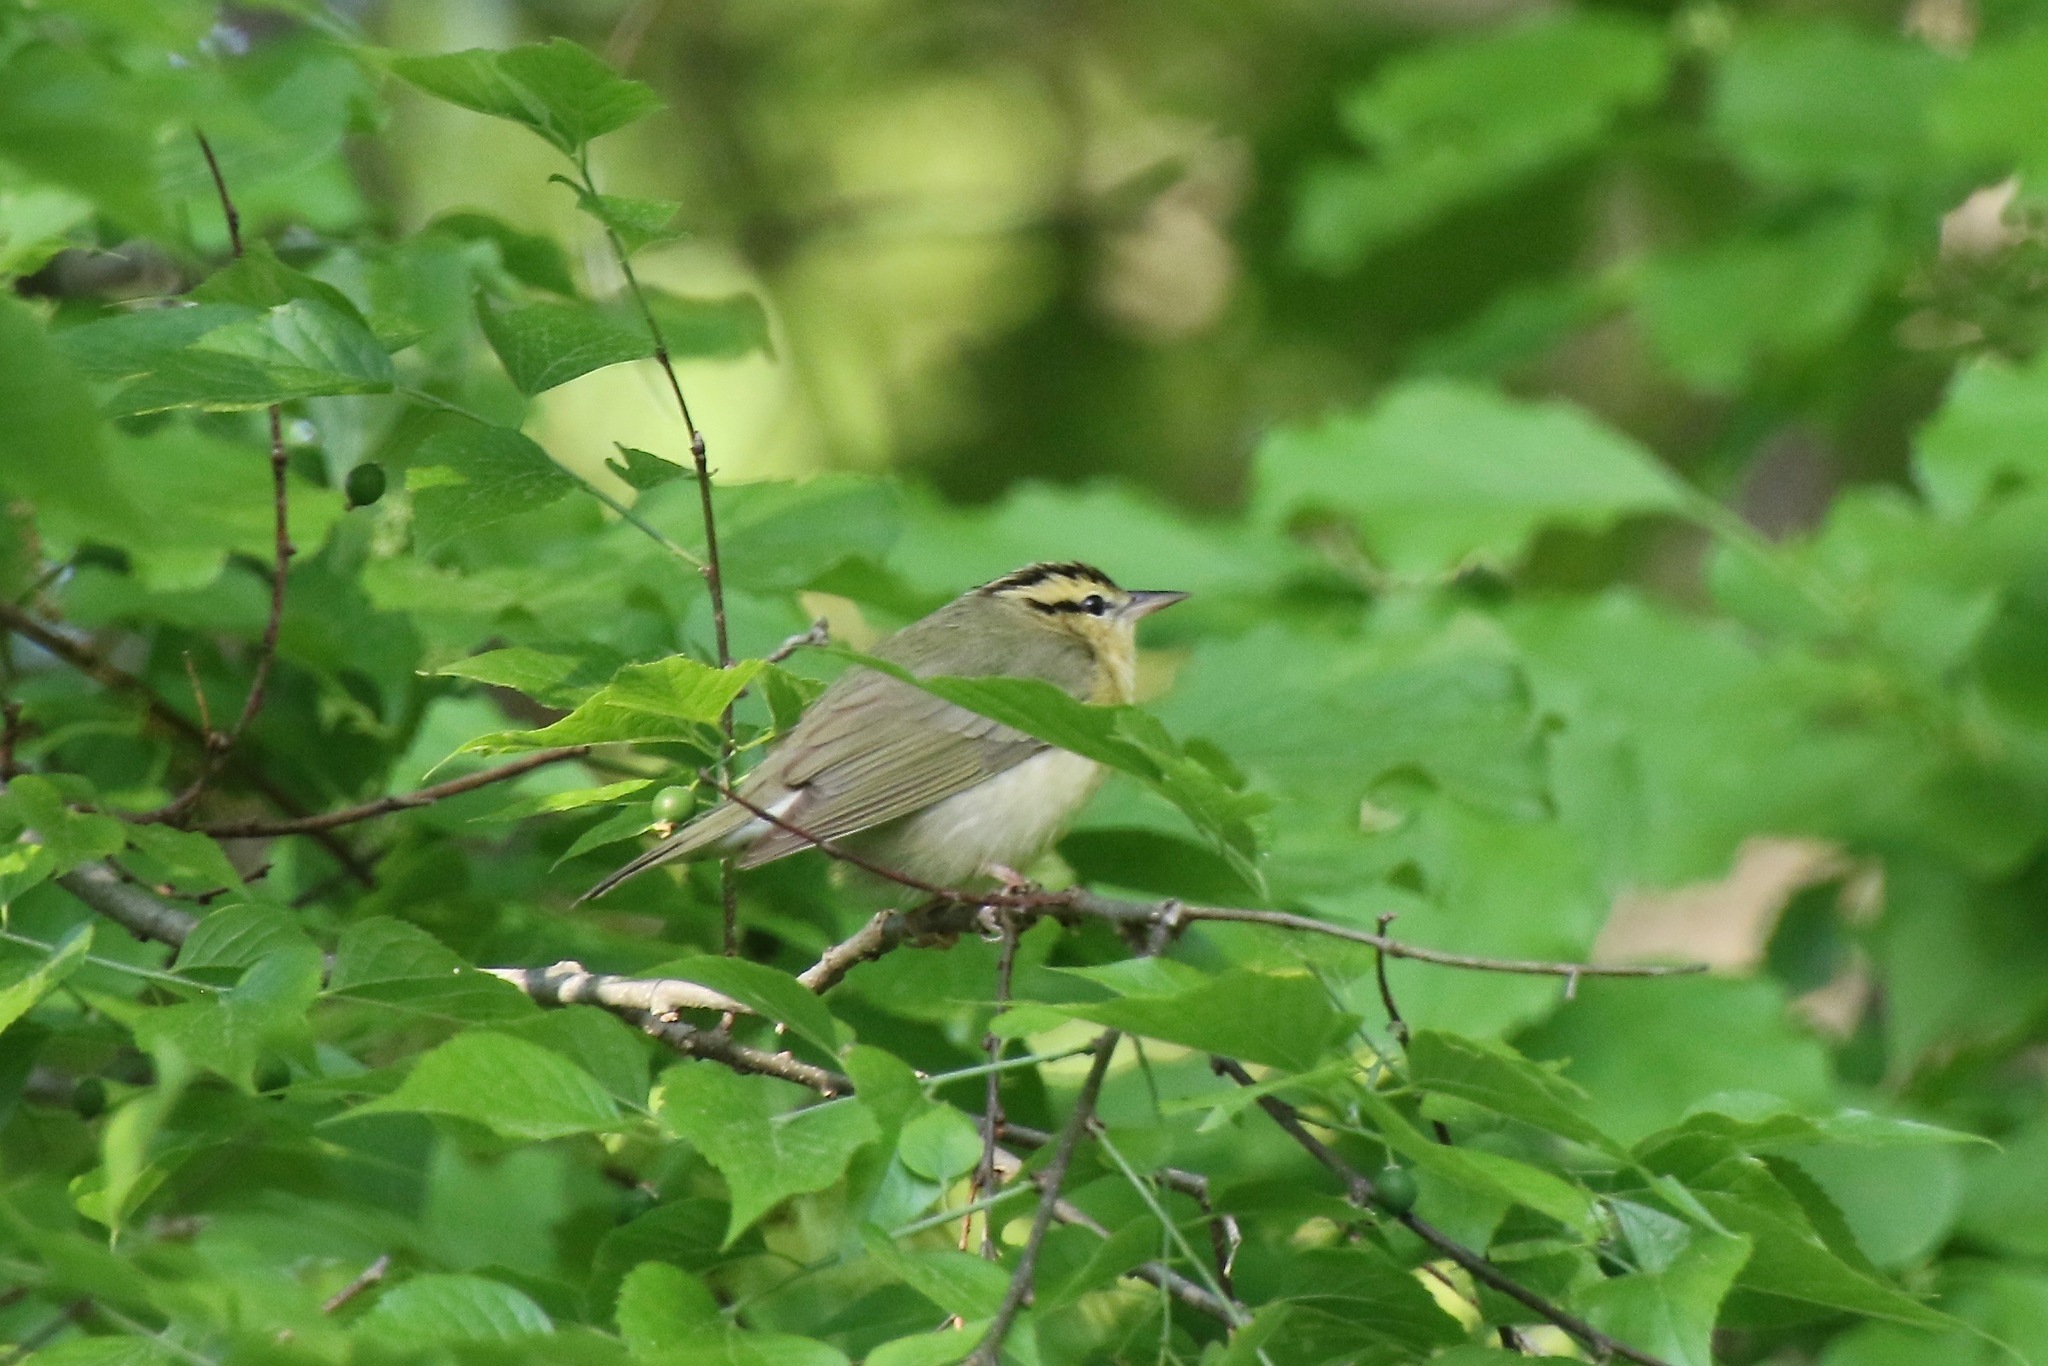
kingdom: Animalia
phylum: Chordata
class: Aves
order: Passeriformes
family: Parulidae
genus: Helmitheros
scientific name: Helmitheros vermivorum
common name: Worm-eating warbler
